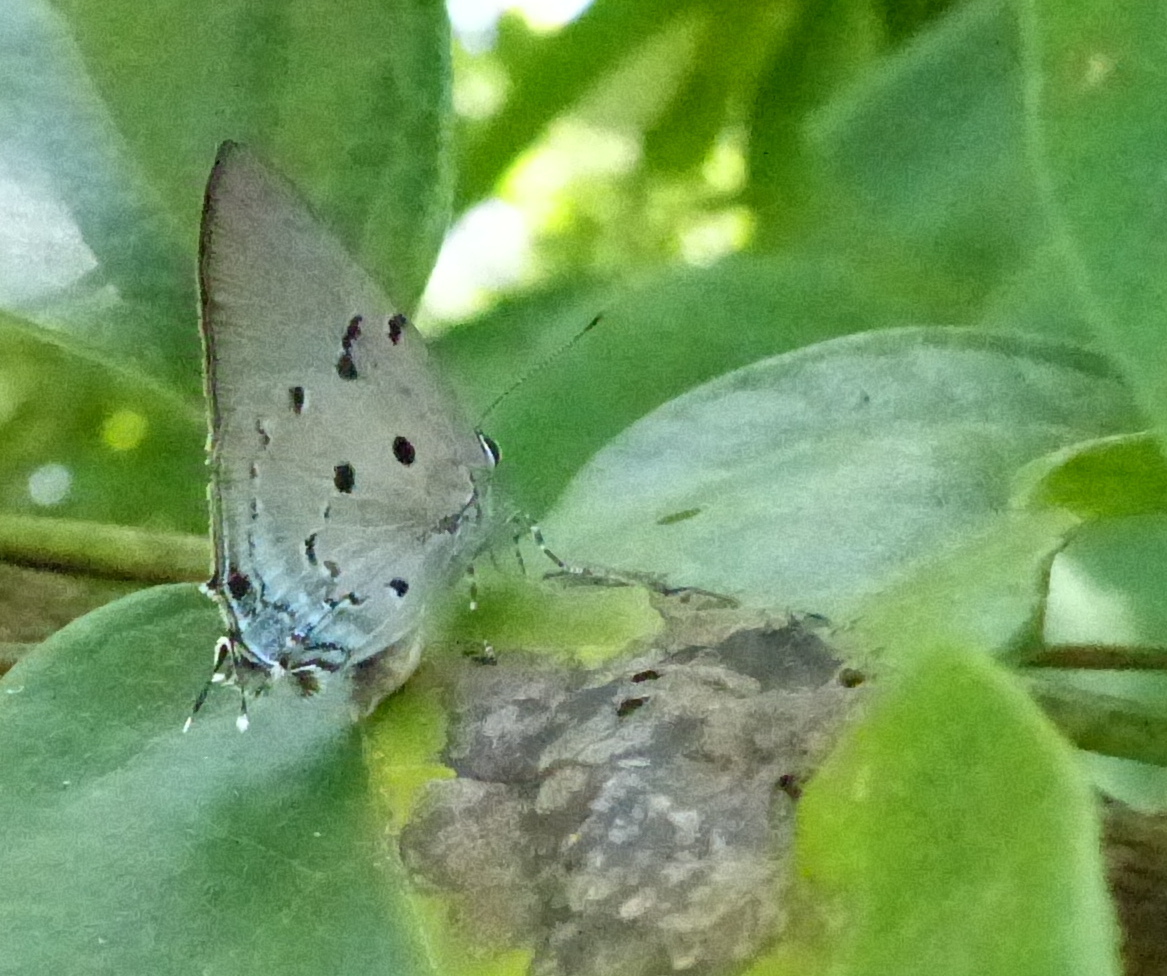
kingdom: Animalia
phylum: Arthropoda
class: Insecta
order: Lepidoptera
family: Lycaenidae
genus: Oenomaus
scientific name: Oenomaus ortygnus
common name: Aquamarine hairstreak
